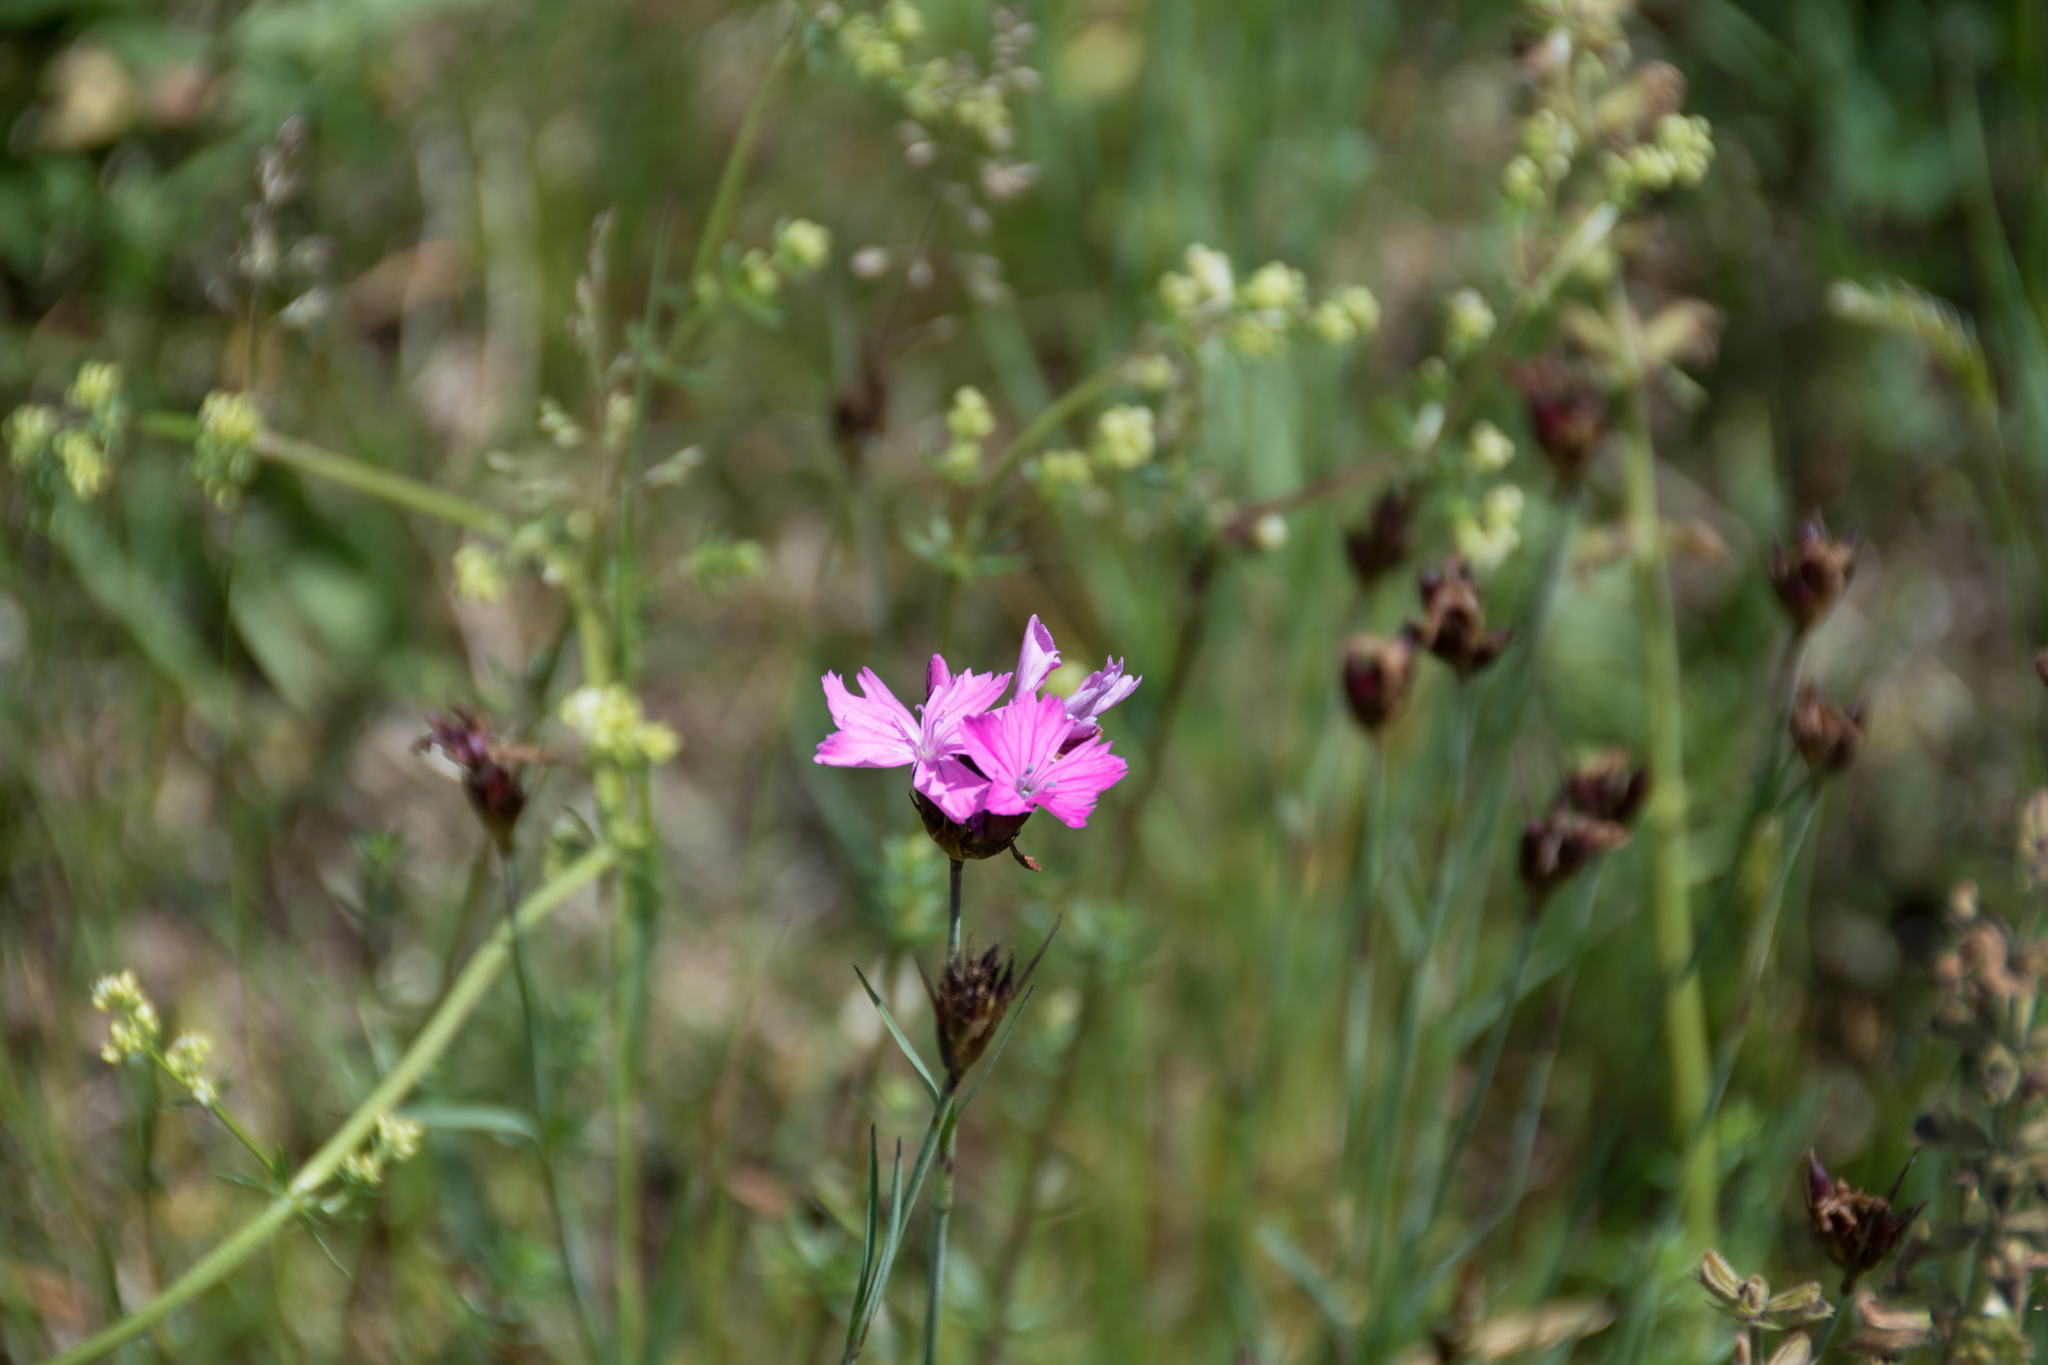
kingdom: Plantae
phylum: Tracheophyta
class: Magnoliopsida
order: Caryophyllales
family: Caryophyllaceae
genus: Dianthus
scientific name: Dianthus carthusianorum
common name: Carthusian pink
